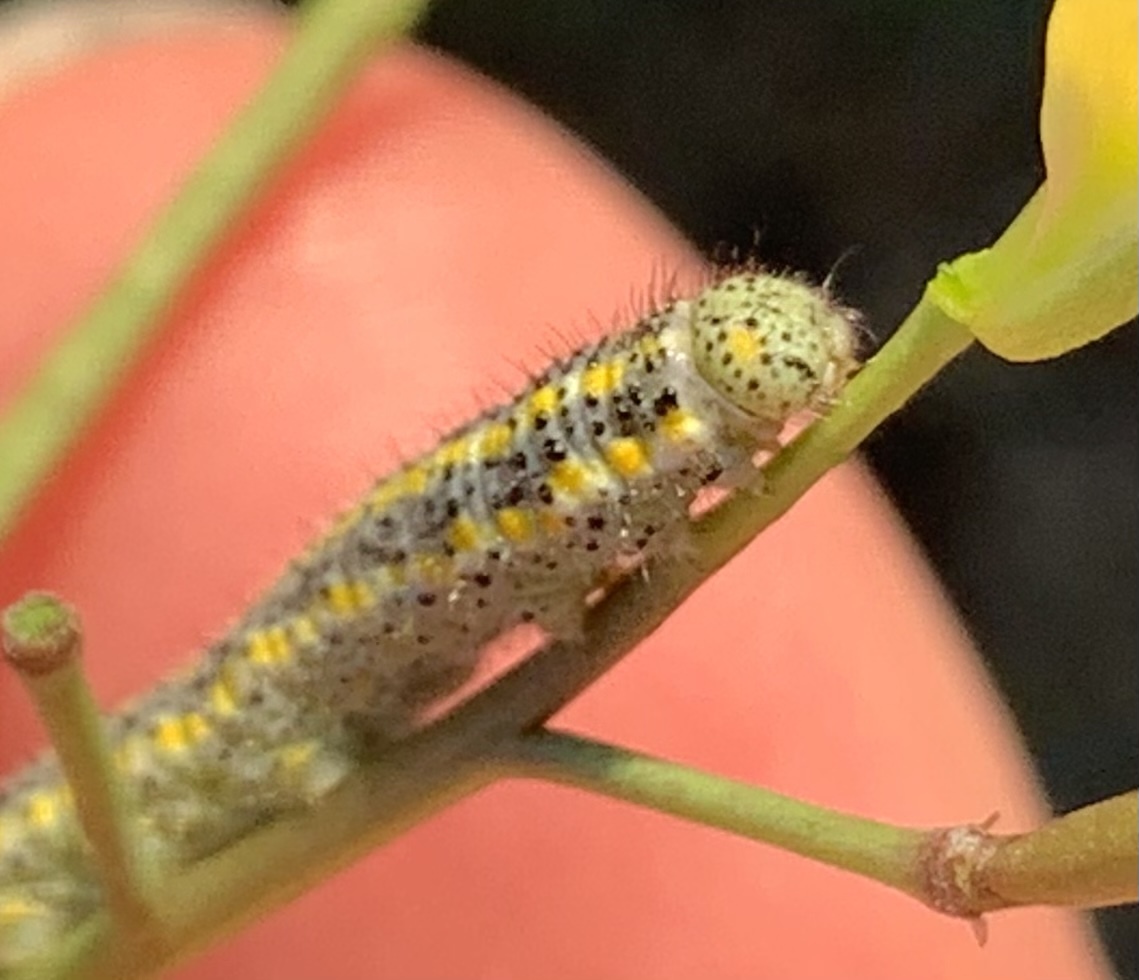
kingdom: Animalia
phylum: Arthropoda
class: Insecta
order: Lepidoptera
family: Pieridae
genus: Pontia
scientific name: Pontia protodice
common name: Checkered white
